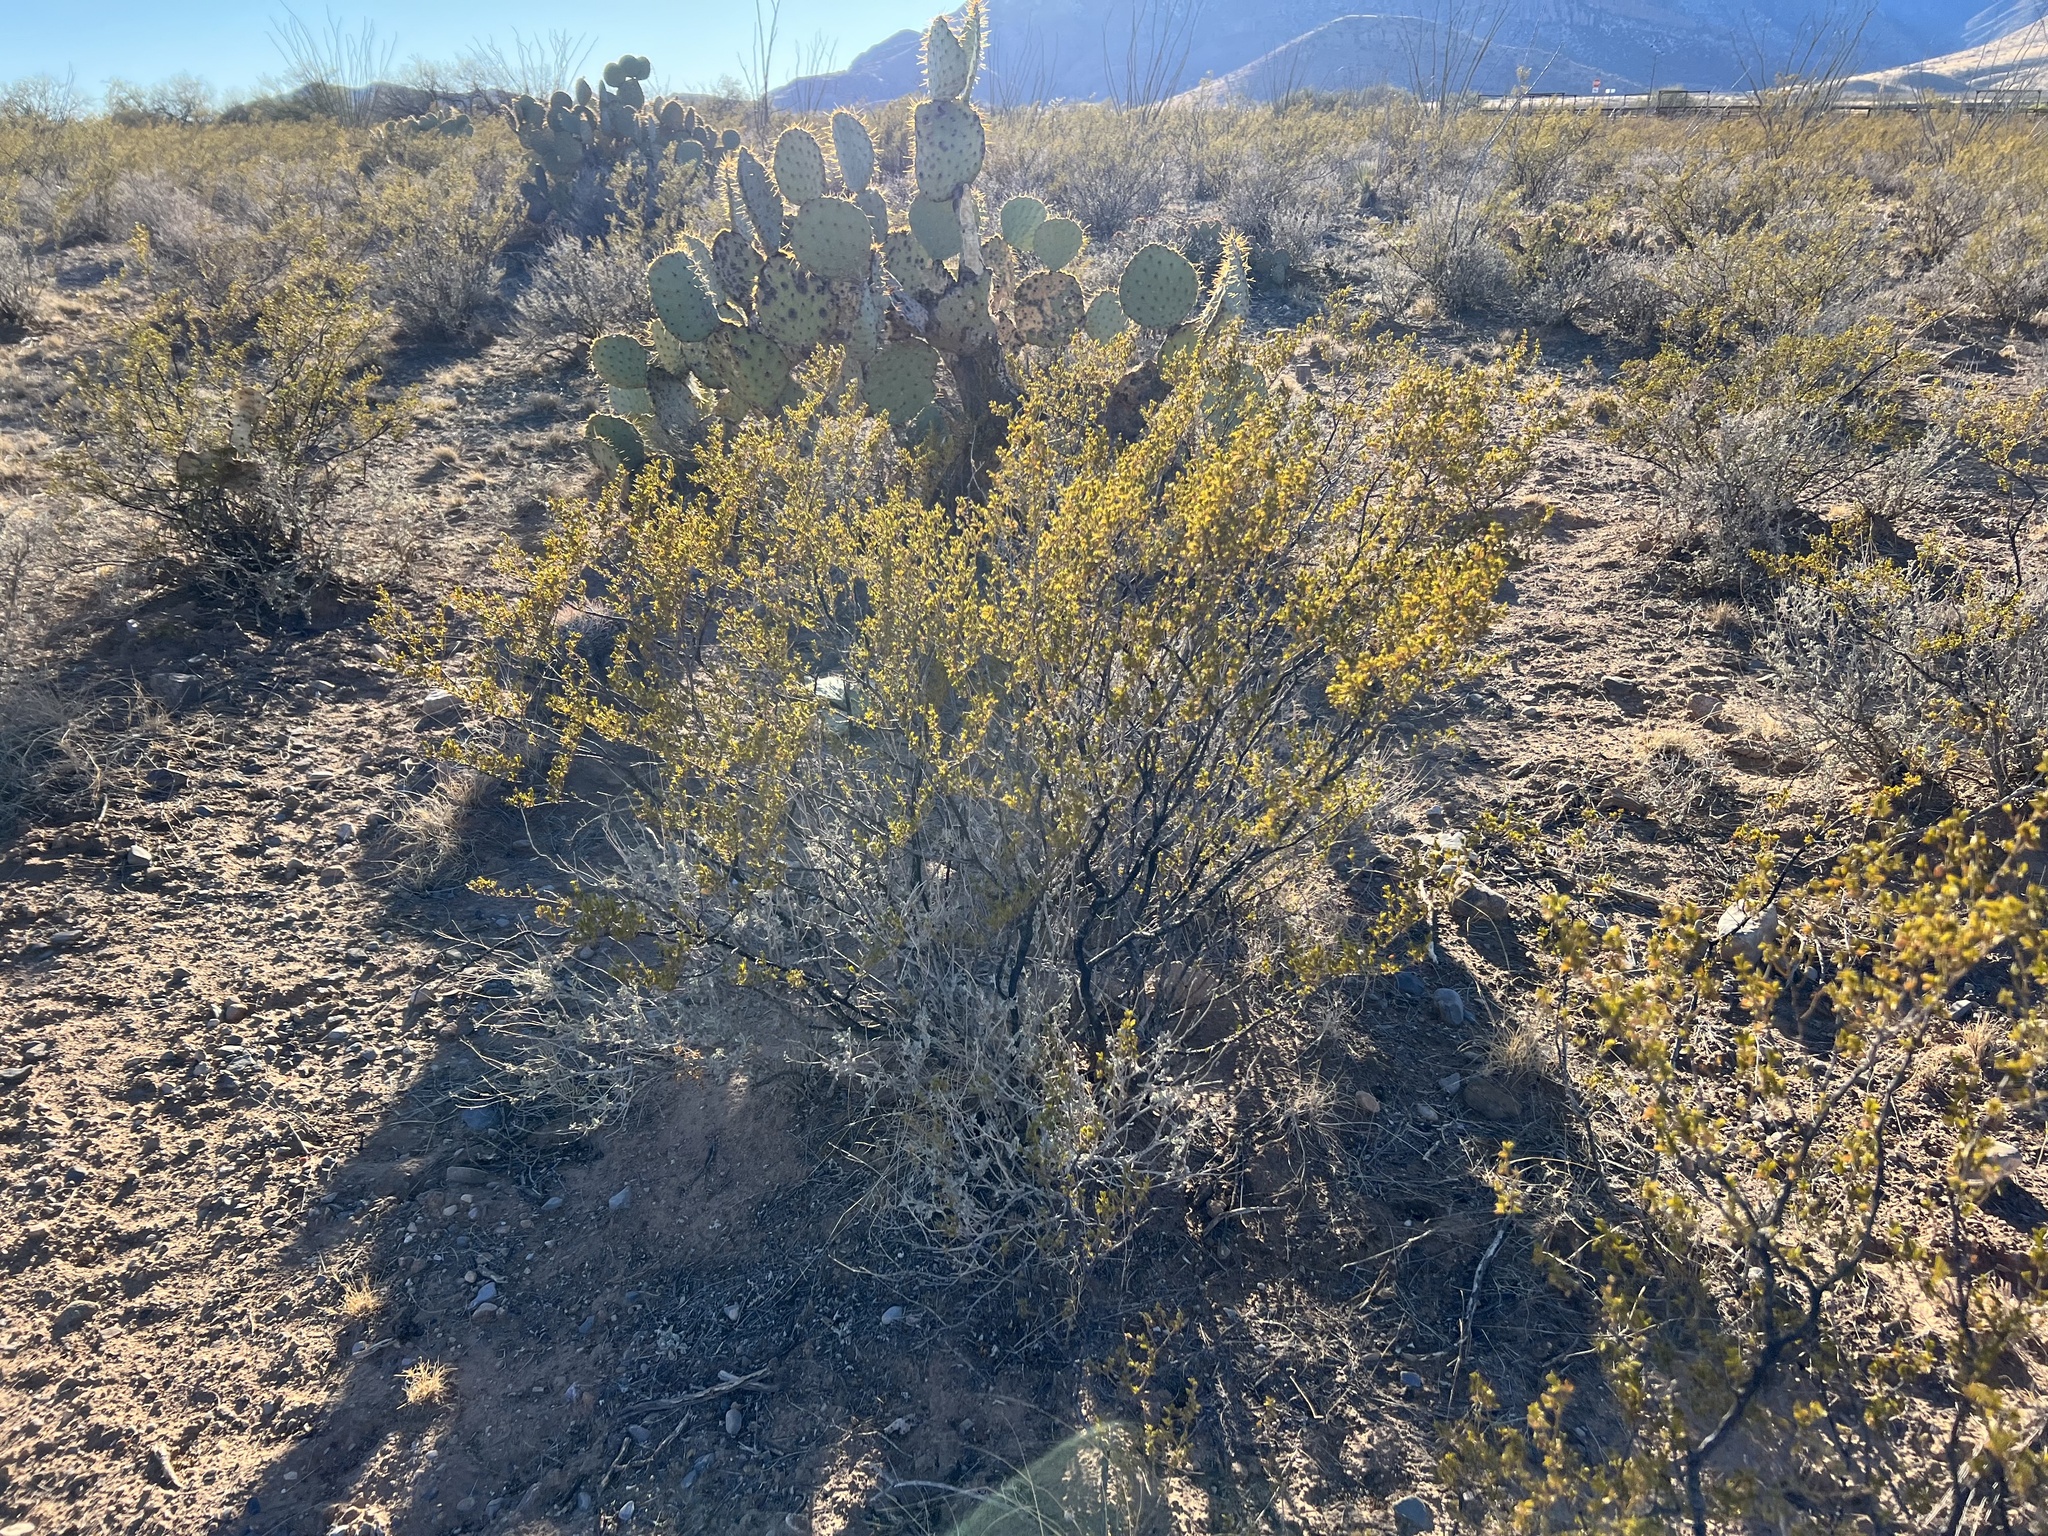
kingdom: Plantae
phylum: Tracheophyta
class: Magnoliopsida
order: Zygophyllales
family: Zygophyllaceae
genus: Larrea
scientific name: Larrea tridentata
